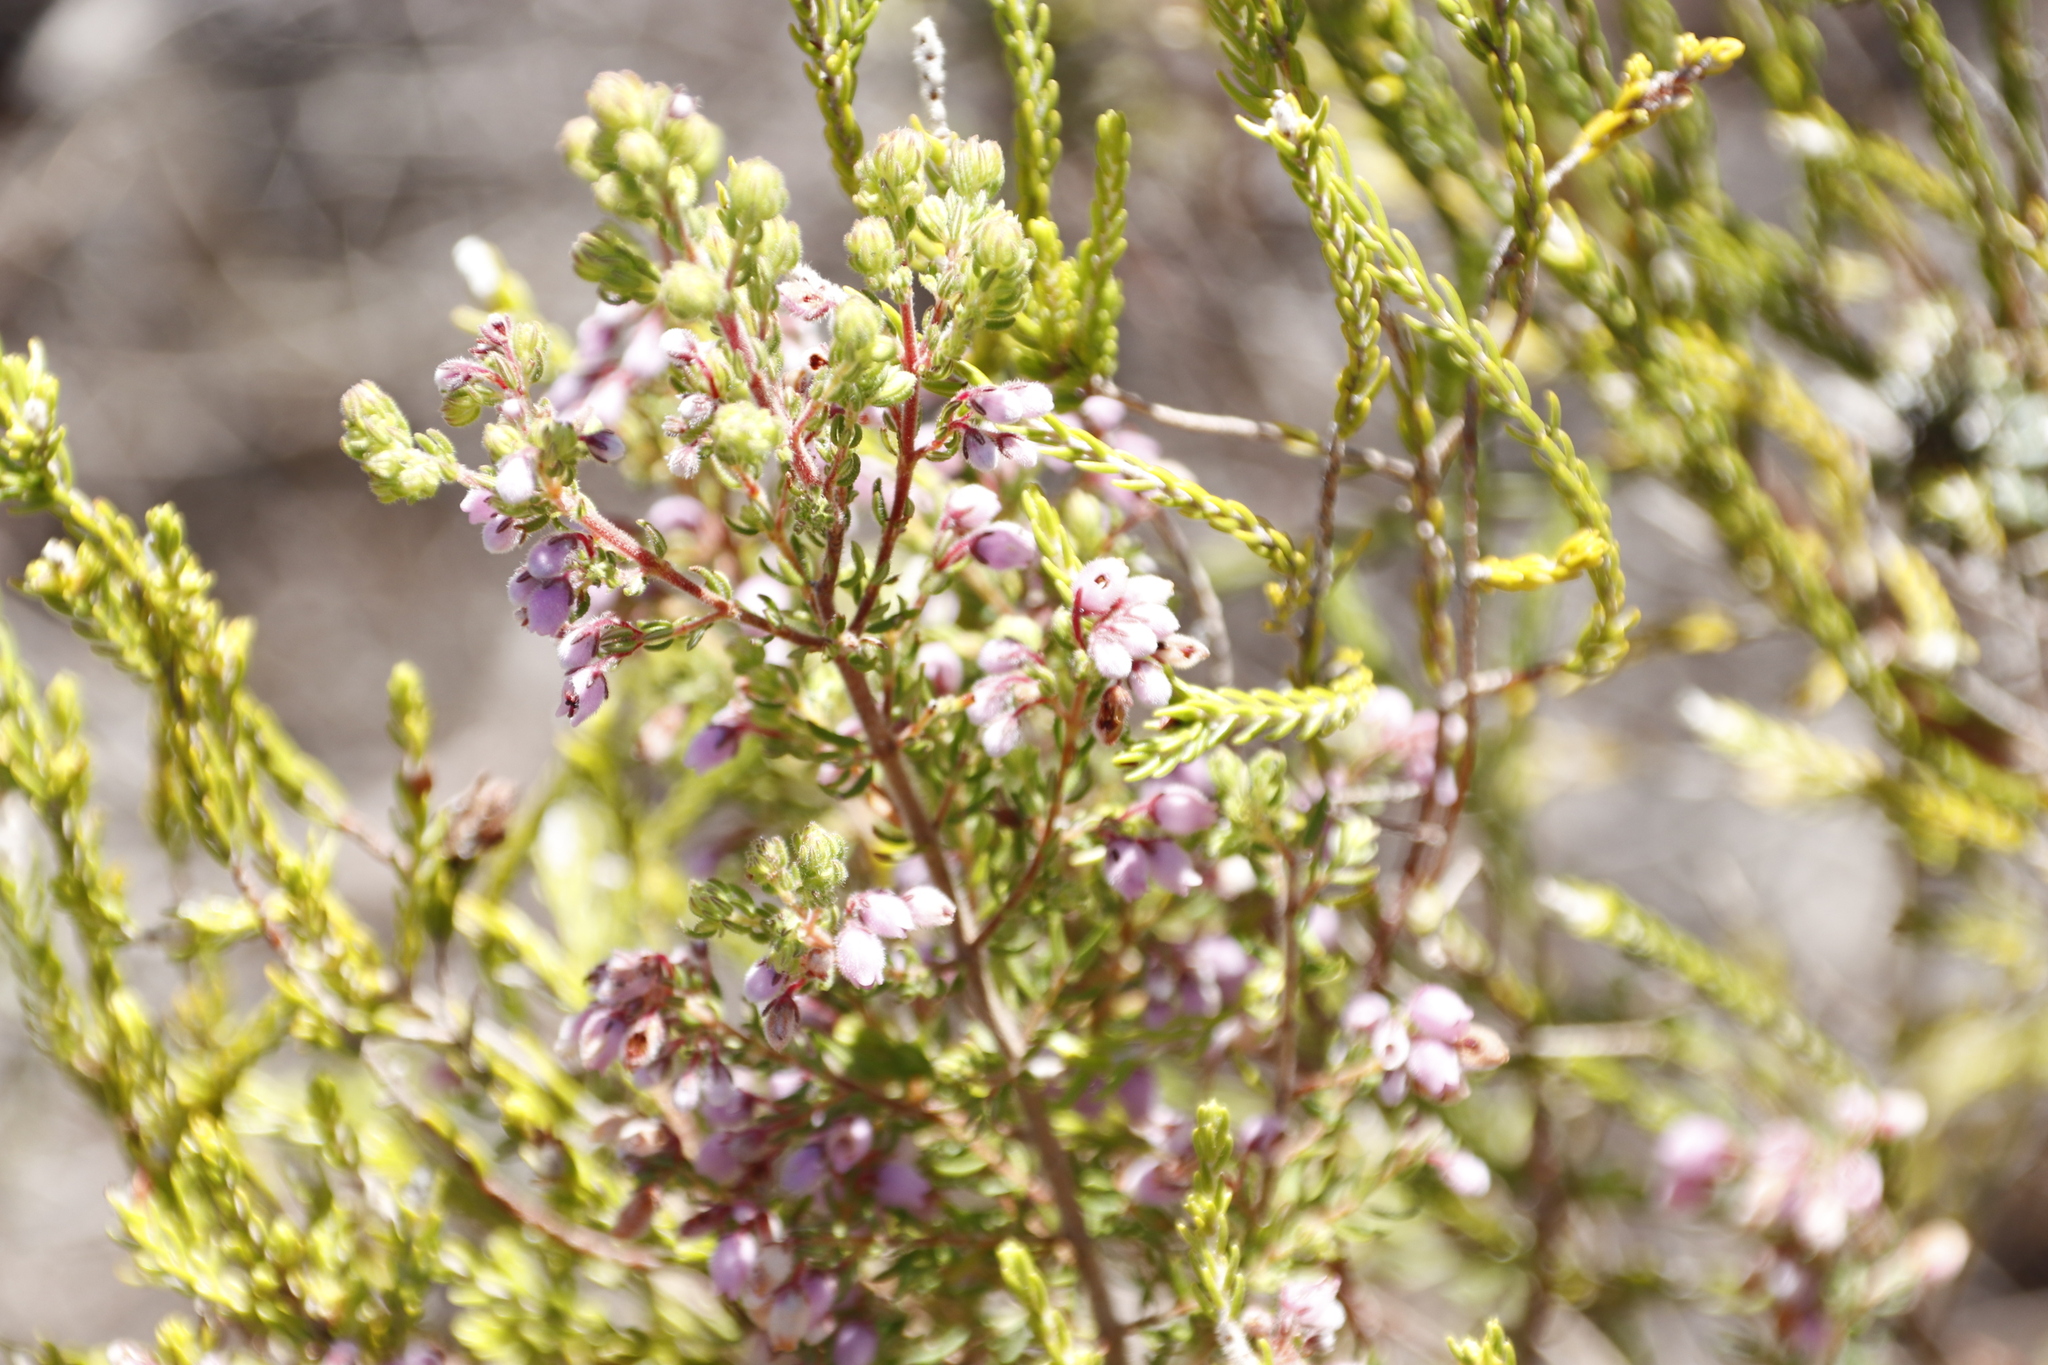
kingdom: Plantae
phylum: Tracheophyta
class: Magnoliopsida
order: Ericales
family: Ericaceae
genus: Erica
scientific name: Erica hirtiflora
